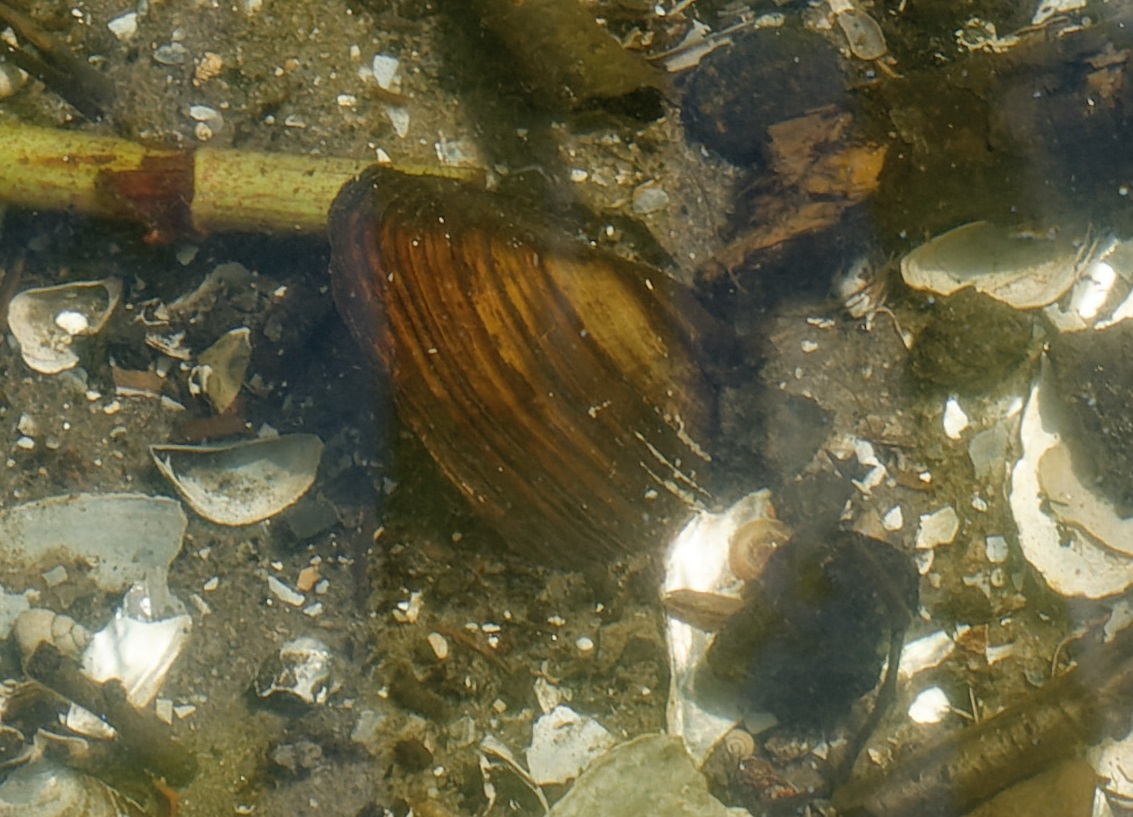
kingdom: Animalia
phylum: Mollusca
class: Bivalvia
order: Unionida
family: Unionidae
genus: Unio
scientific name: Unio tumidus
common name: Swollen river mussel
